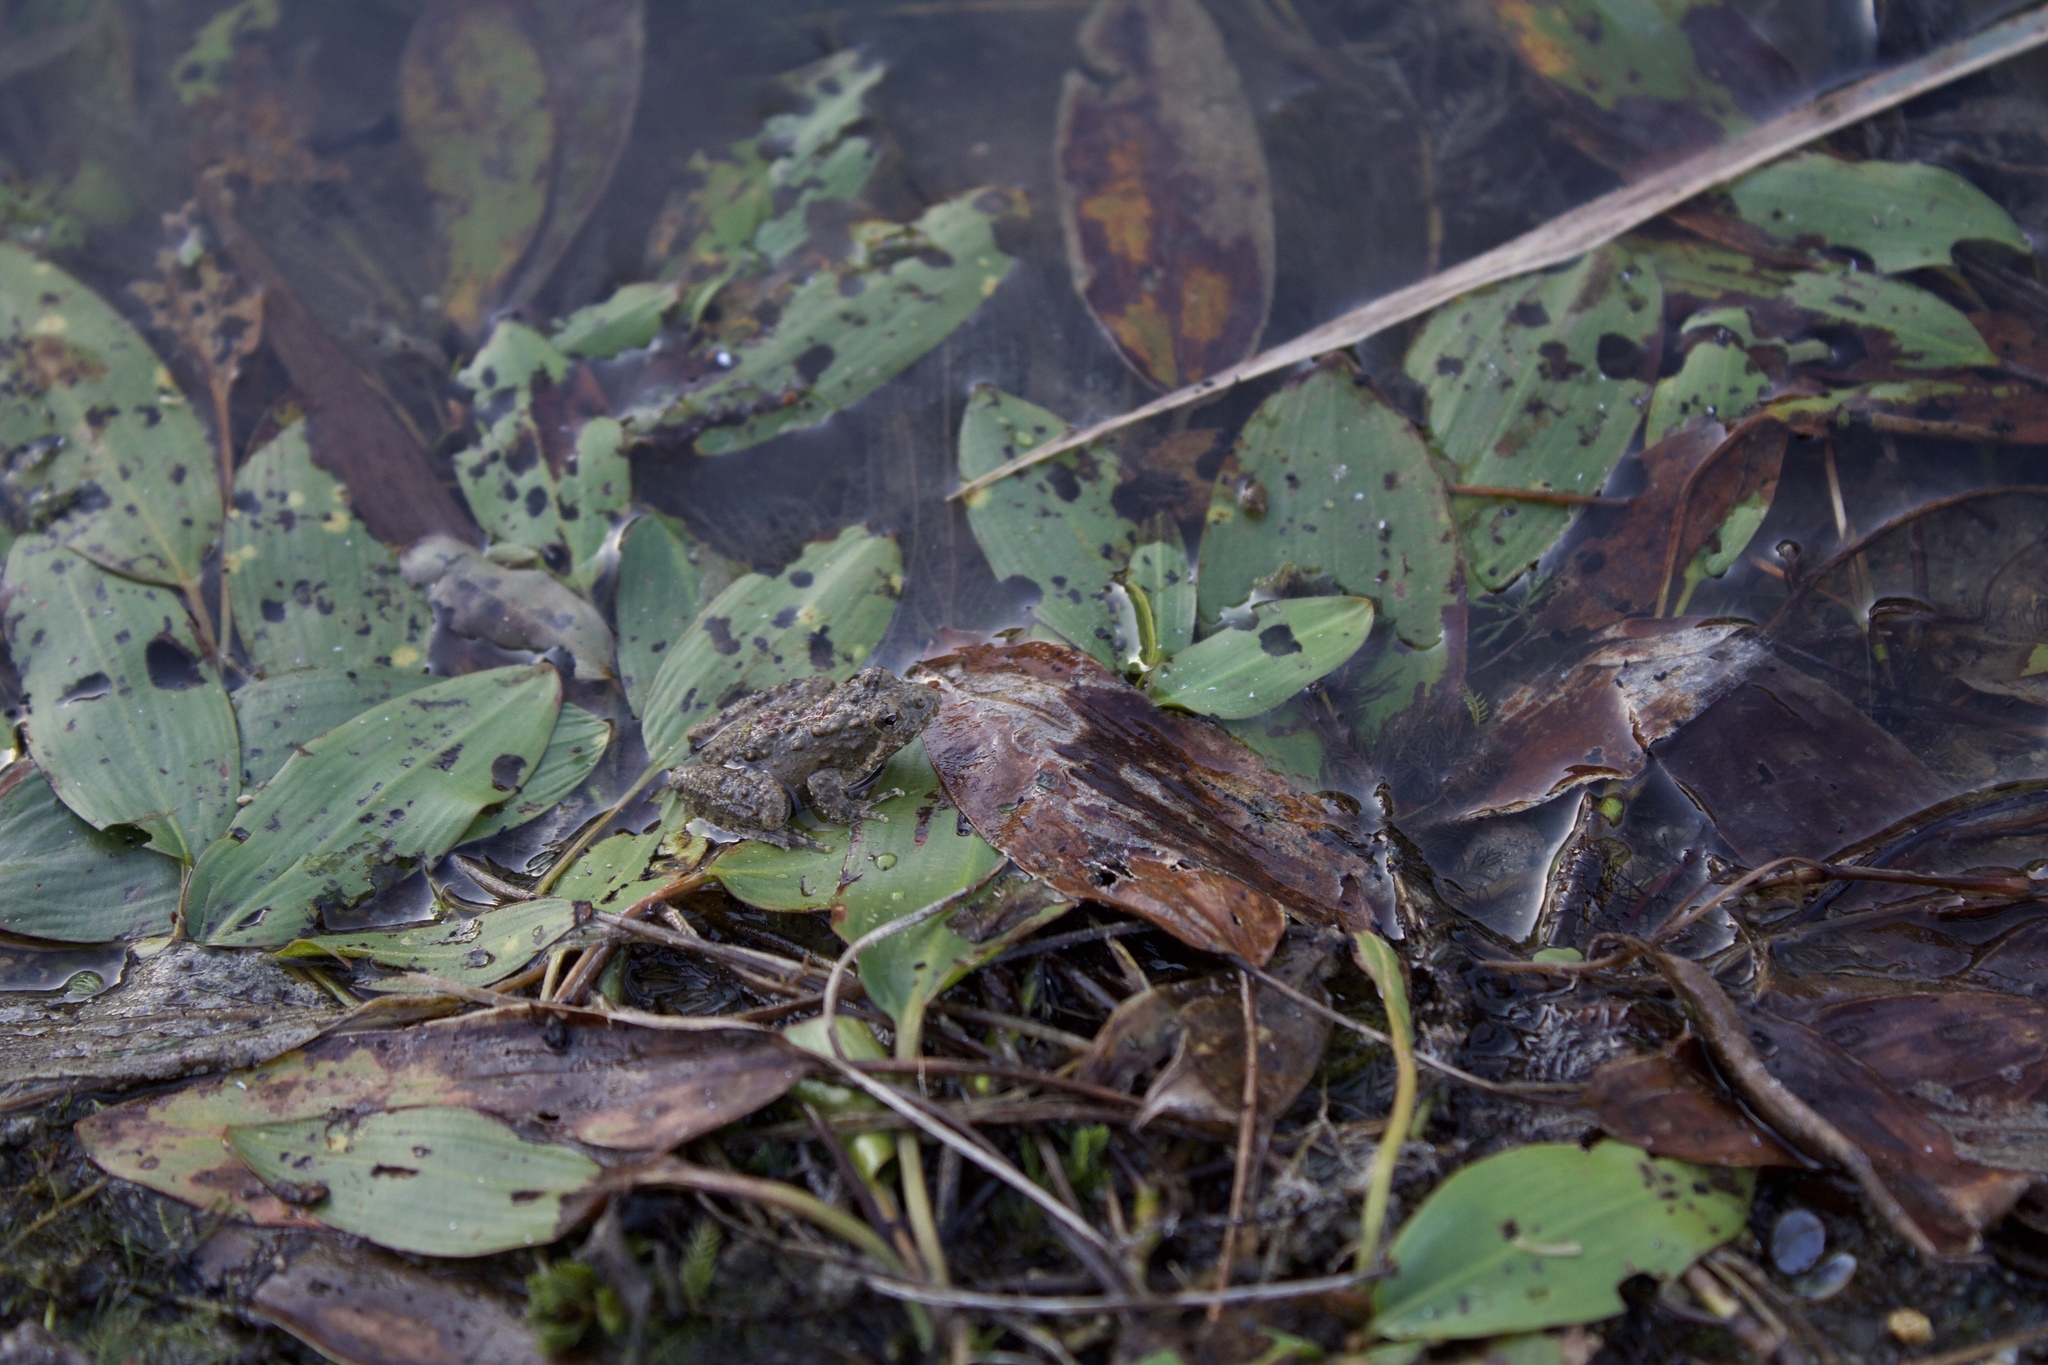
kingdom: Animalia
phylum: Chordata
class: Amphibia
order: Anura
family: Hylidae
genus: Acris
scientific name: Acris blanchardi
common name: Blanchard's cricket frog
